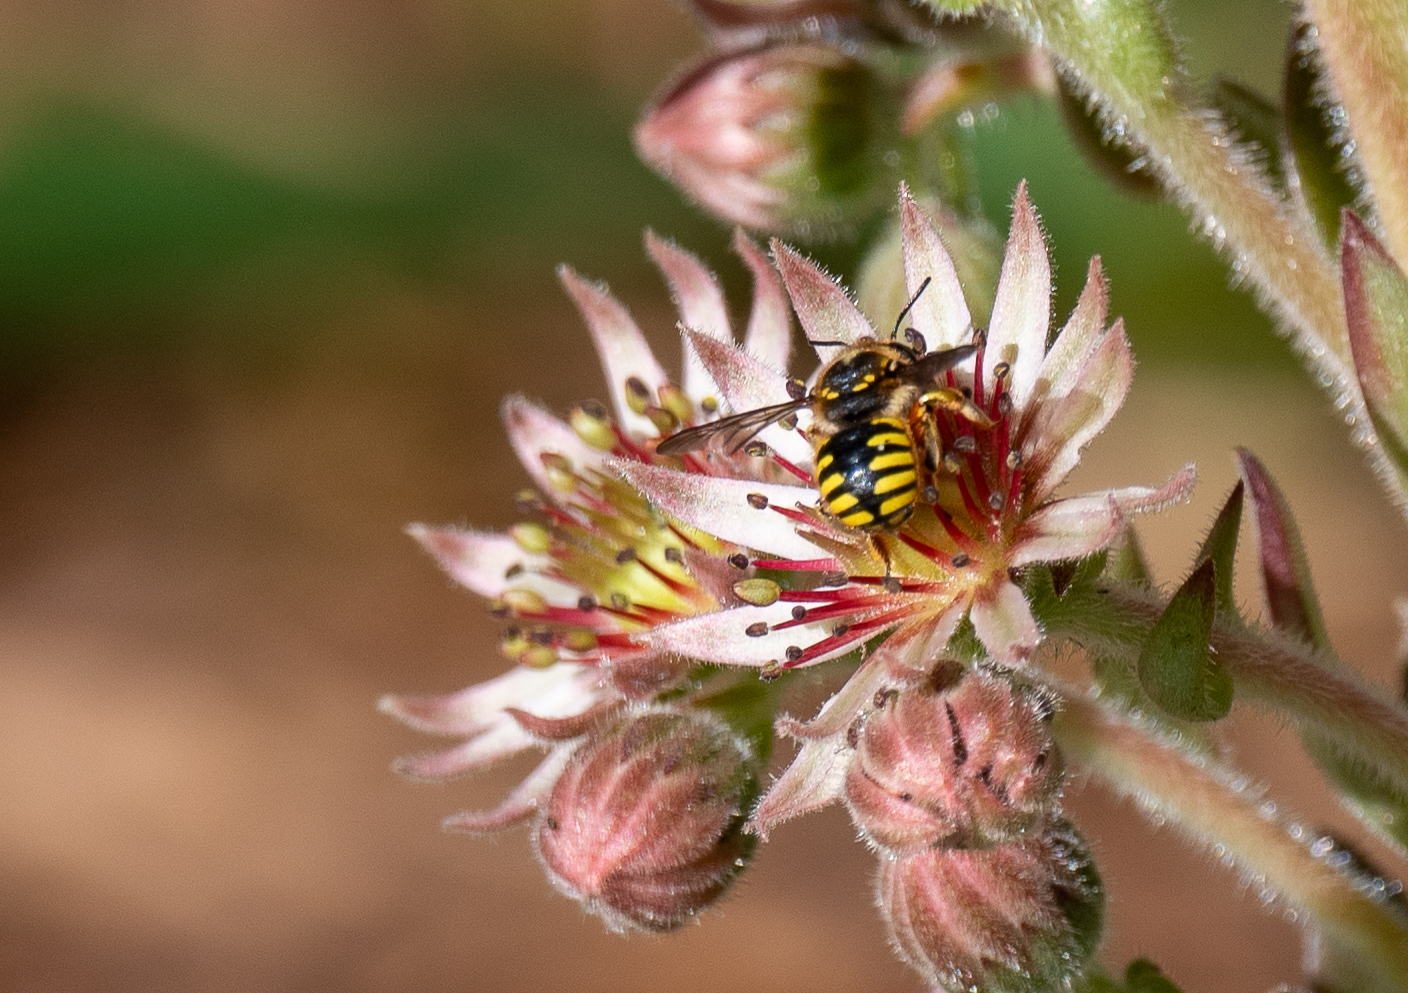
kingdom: Animalia
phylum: Arthropoda
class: Insecta
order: Hymenoptera
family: Megachilidae
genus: Anthidium
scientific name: Anthidium manicatum
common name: Wool carder bee
